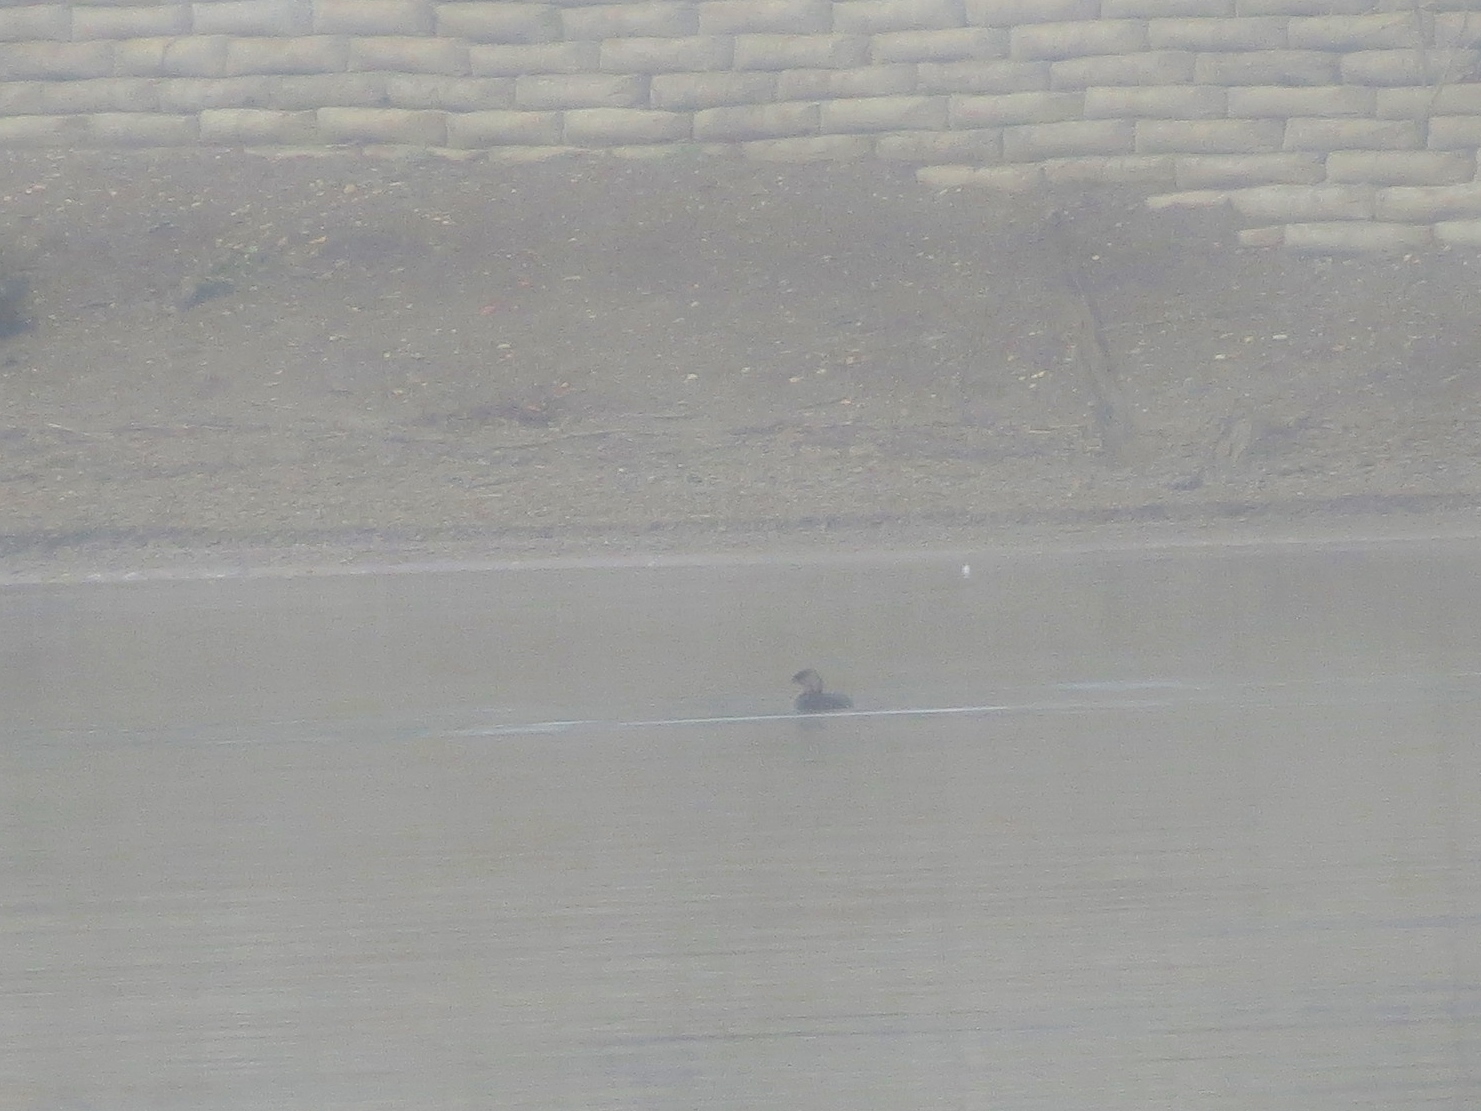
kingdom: Animalia
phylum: Chordata
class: Aves
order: Podicipediformes
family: Podicipedidae
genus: Podilymbus
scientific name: Podilymbus podiceps
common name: Pied-billed grebe
